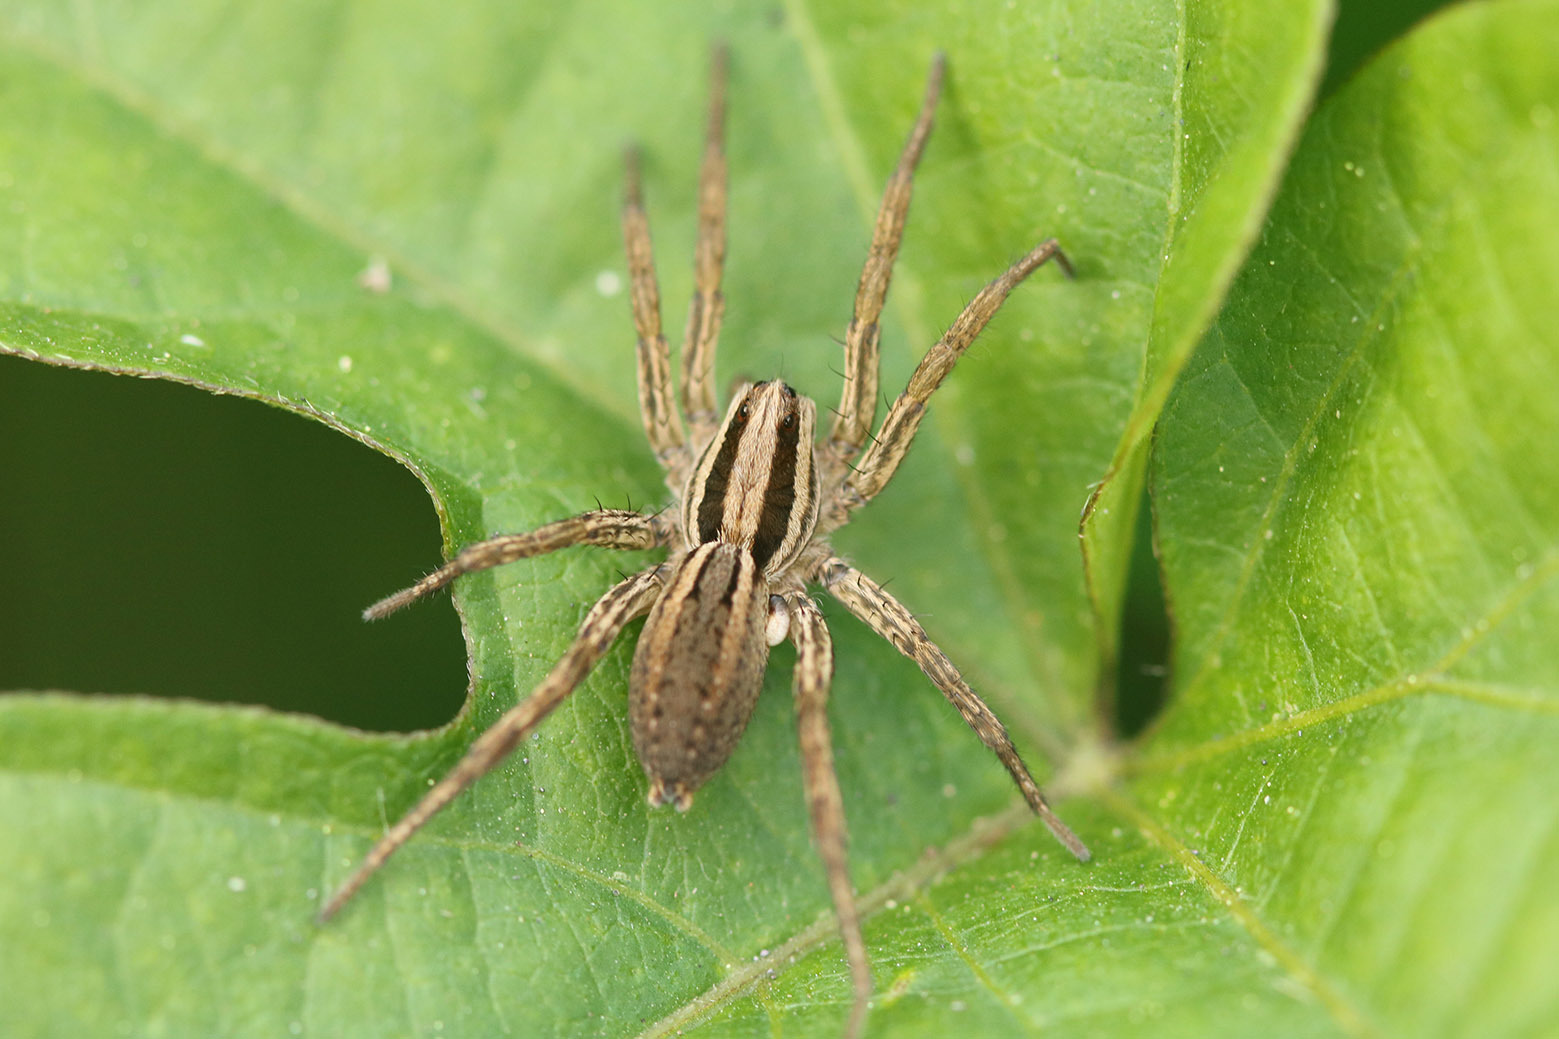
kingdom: Animalia
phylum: Arthropoda
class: Arachnida
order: Araneae
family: Lycosidae
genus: Hogna
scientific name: Hogna bivittata
